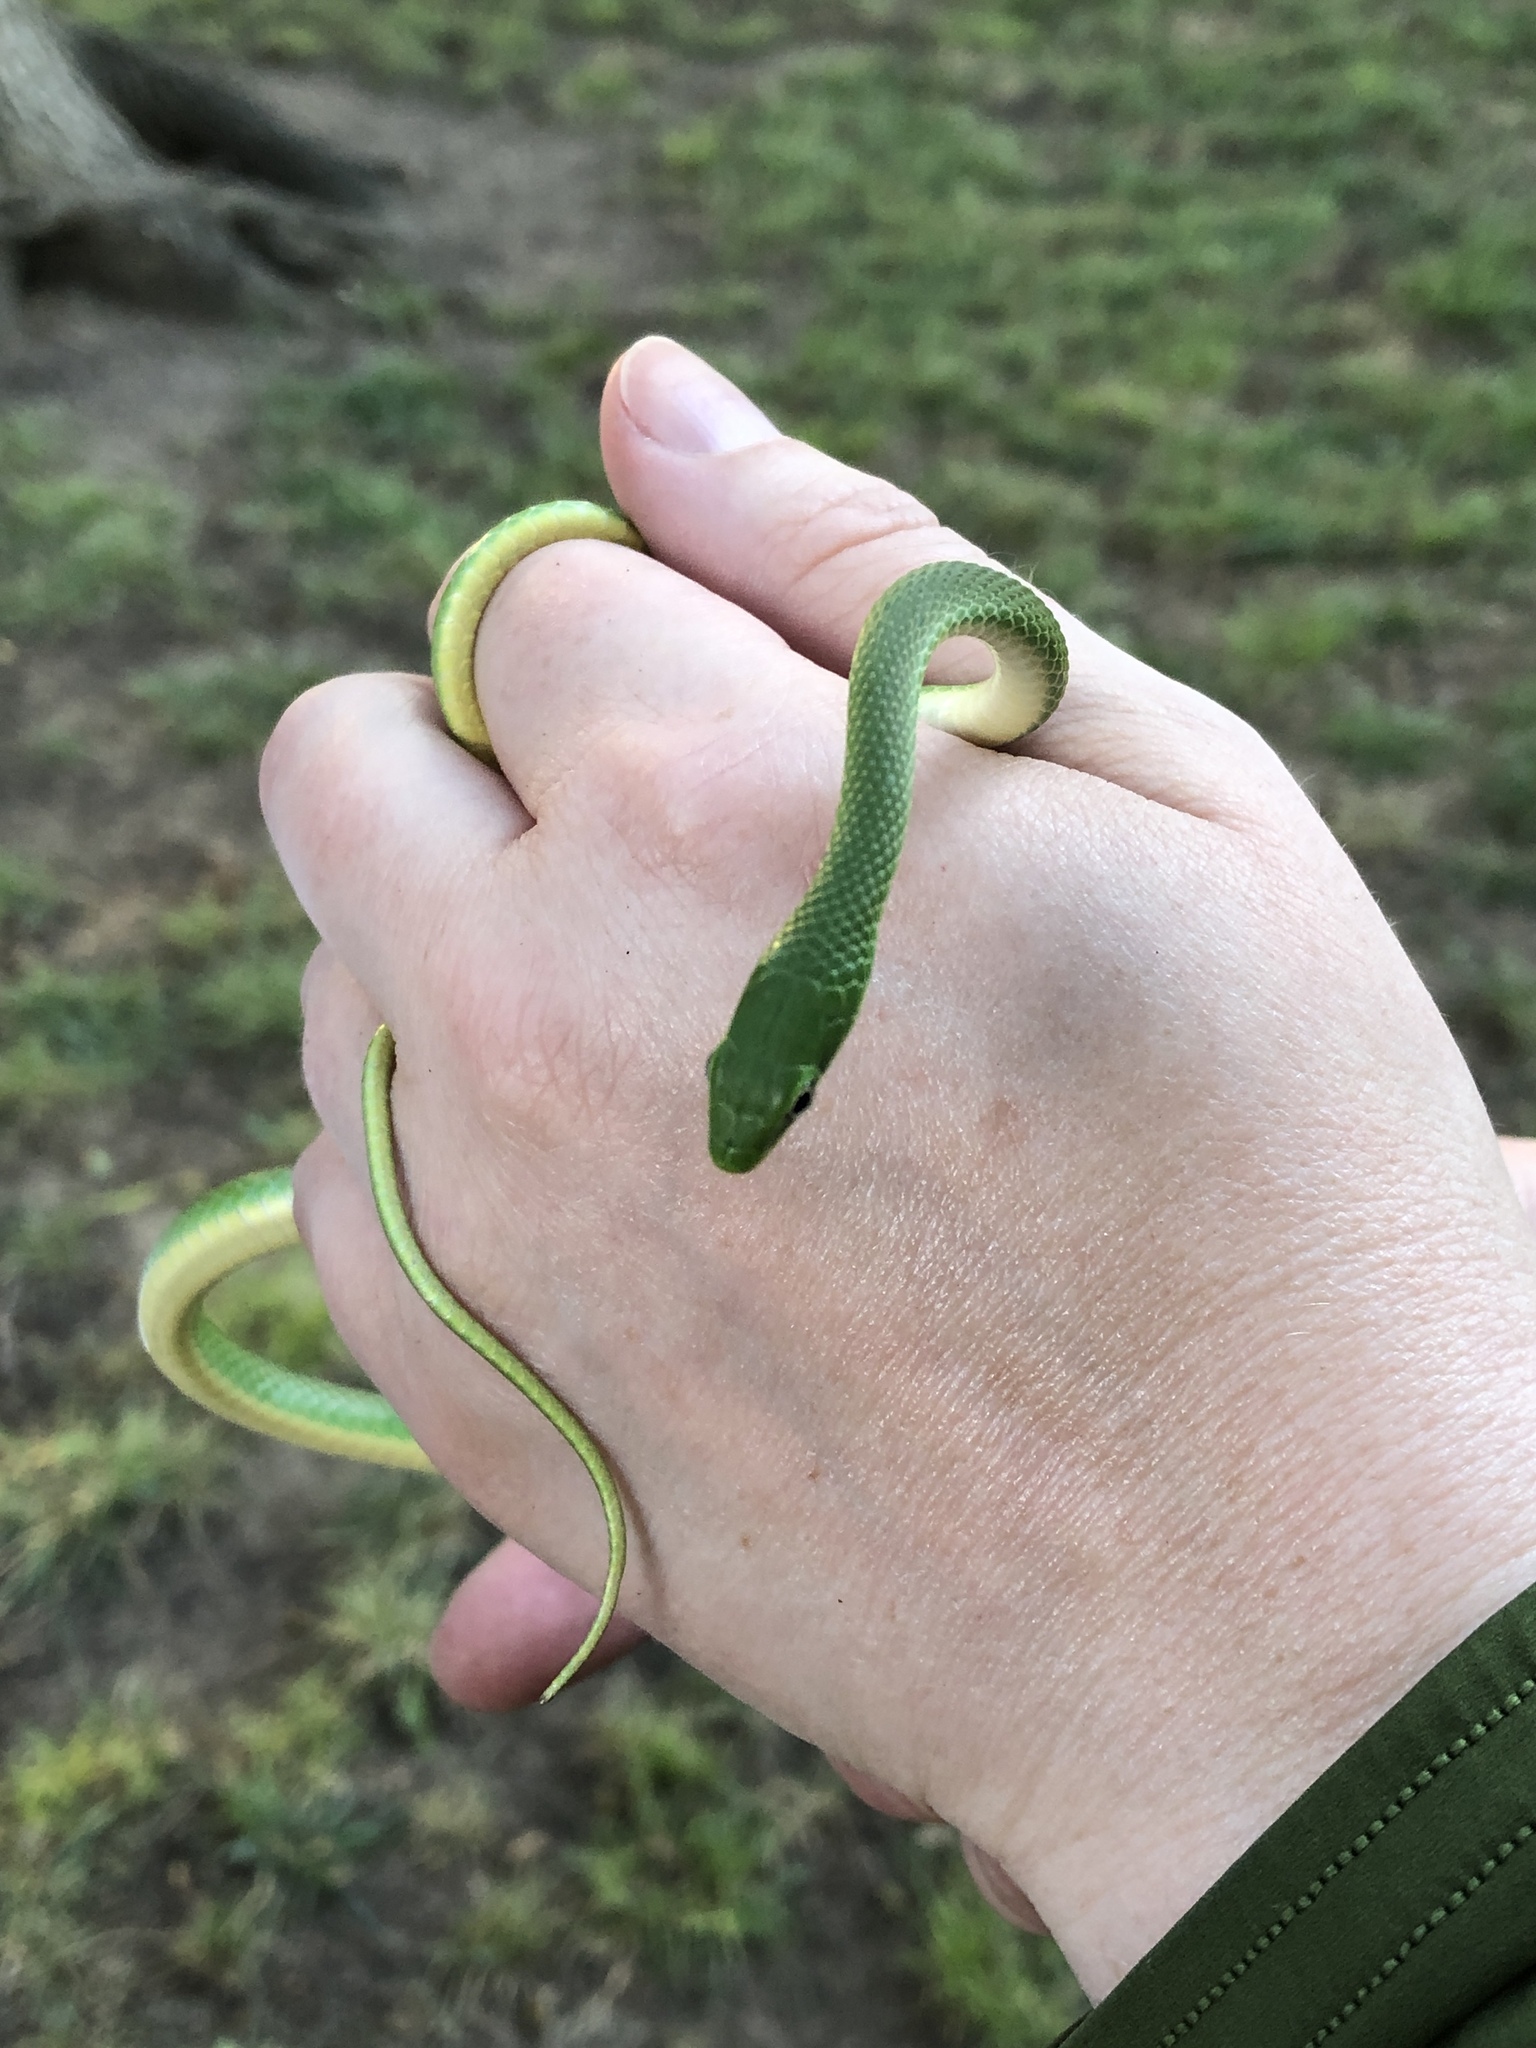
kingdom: Animalia
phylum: Chordata
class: Squamata
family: Colubridae
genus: Opheodrys
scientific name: Opheodrys aestivus
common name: Rough greensnake
